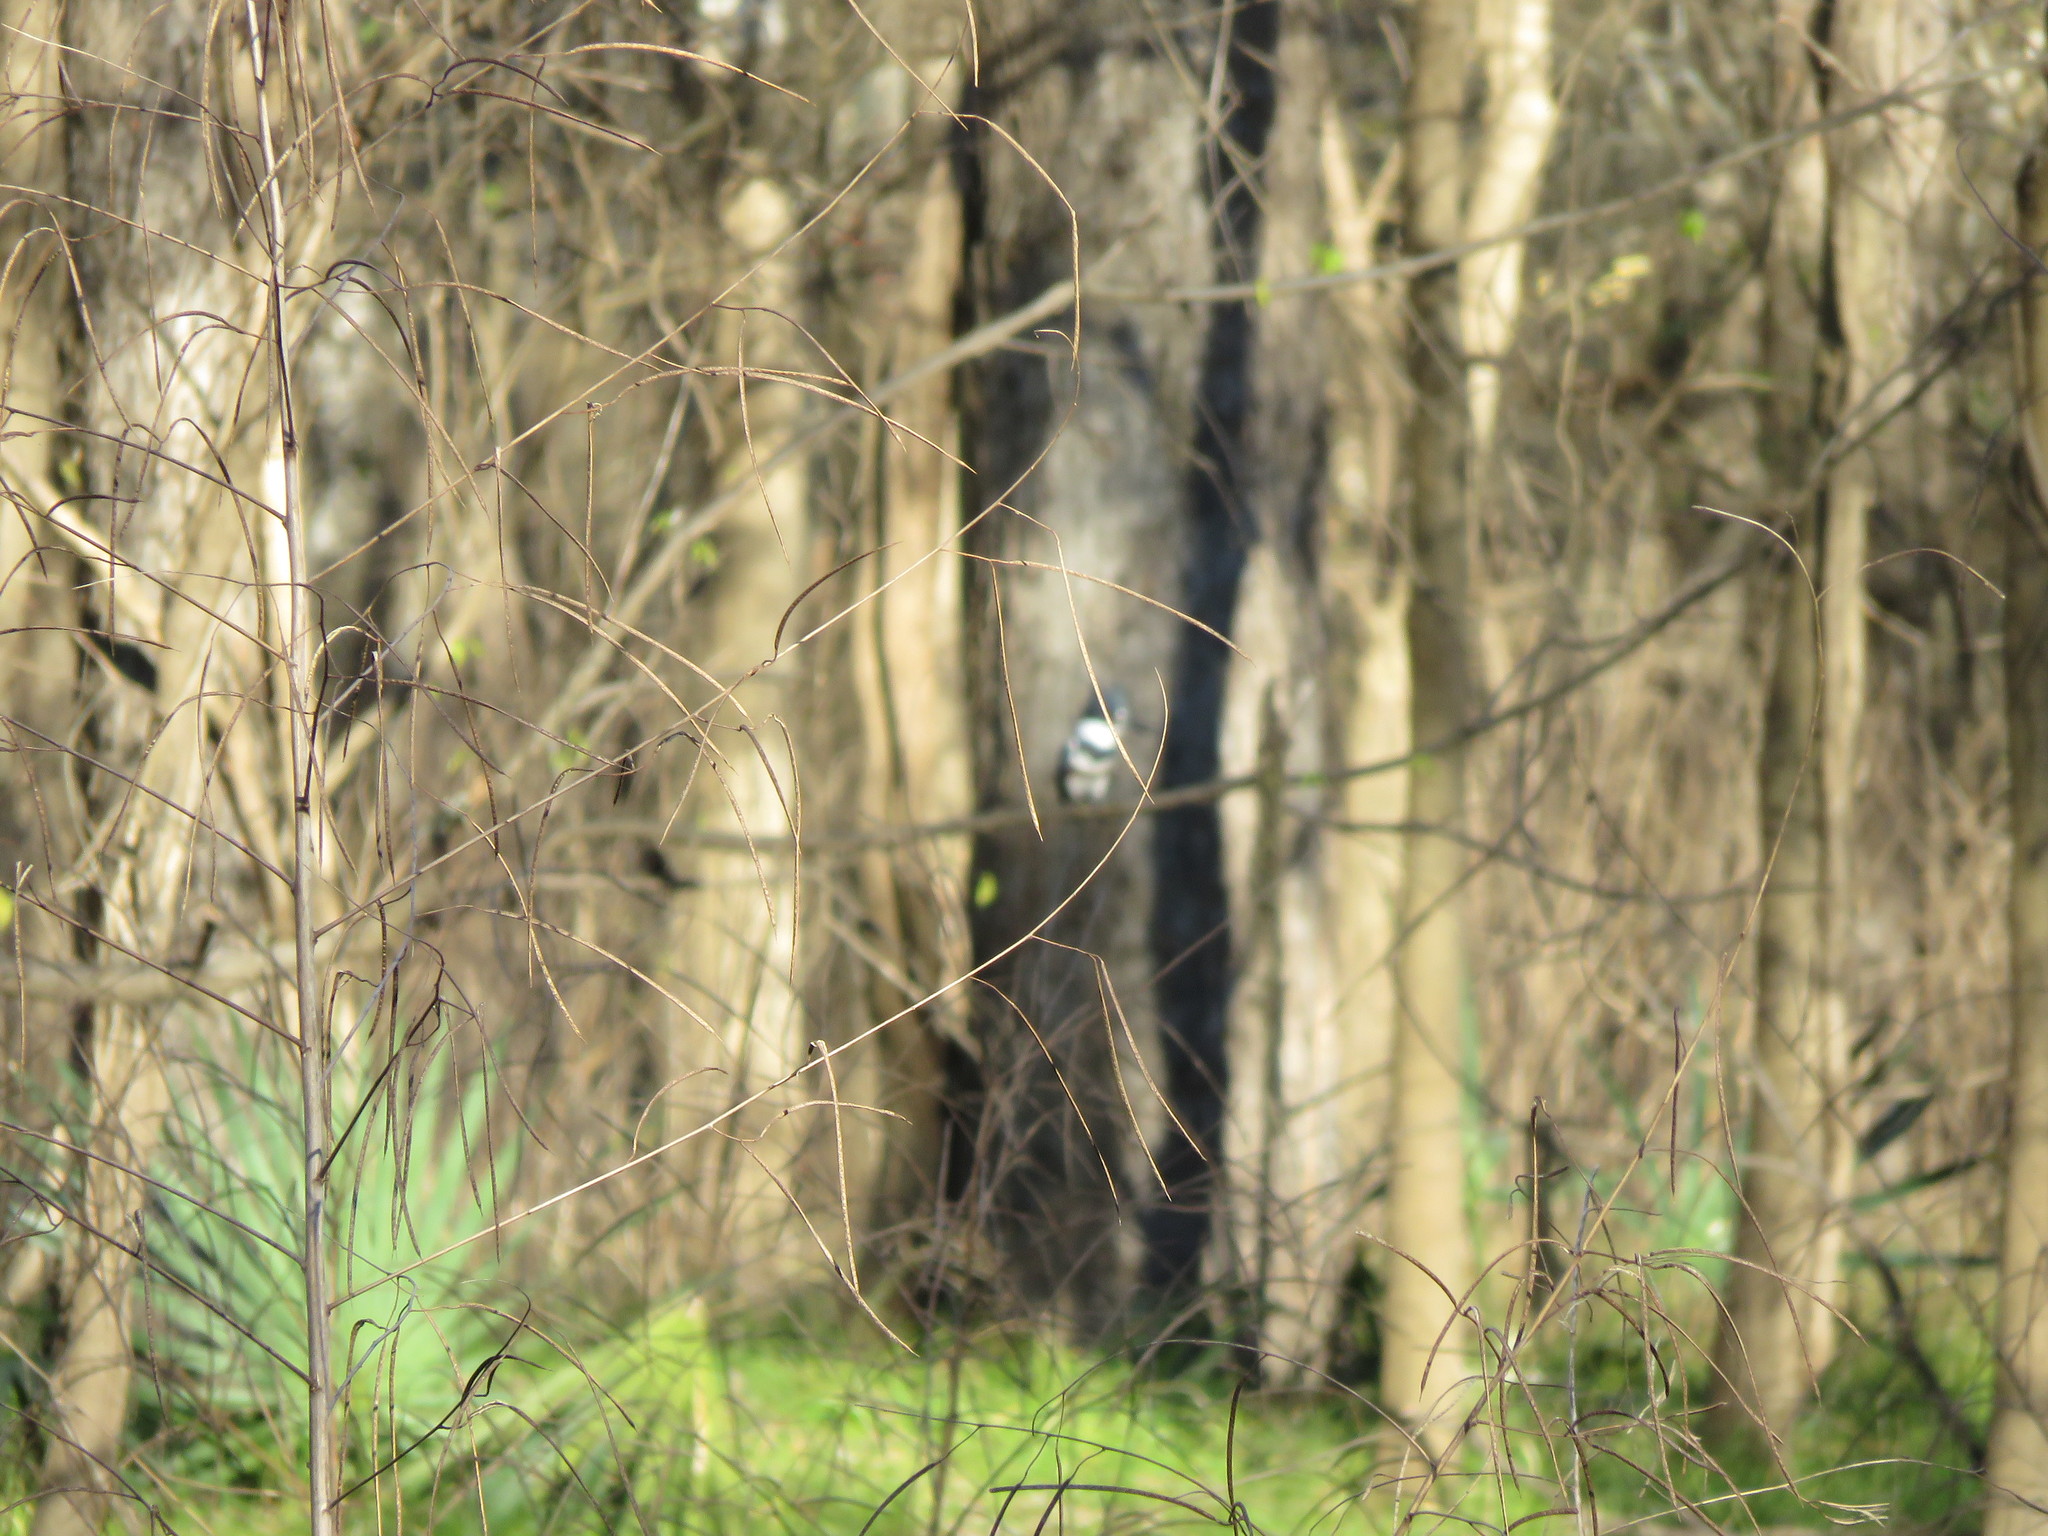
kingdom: Plantae
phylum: Tracheophyta
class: Magnoliopsida
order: Fabales
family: Fabaceae
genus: Sesbania
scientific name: Sesbania herbacea
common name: Bigpod sesbania
